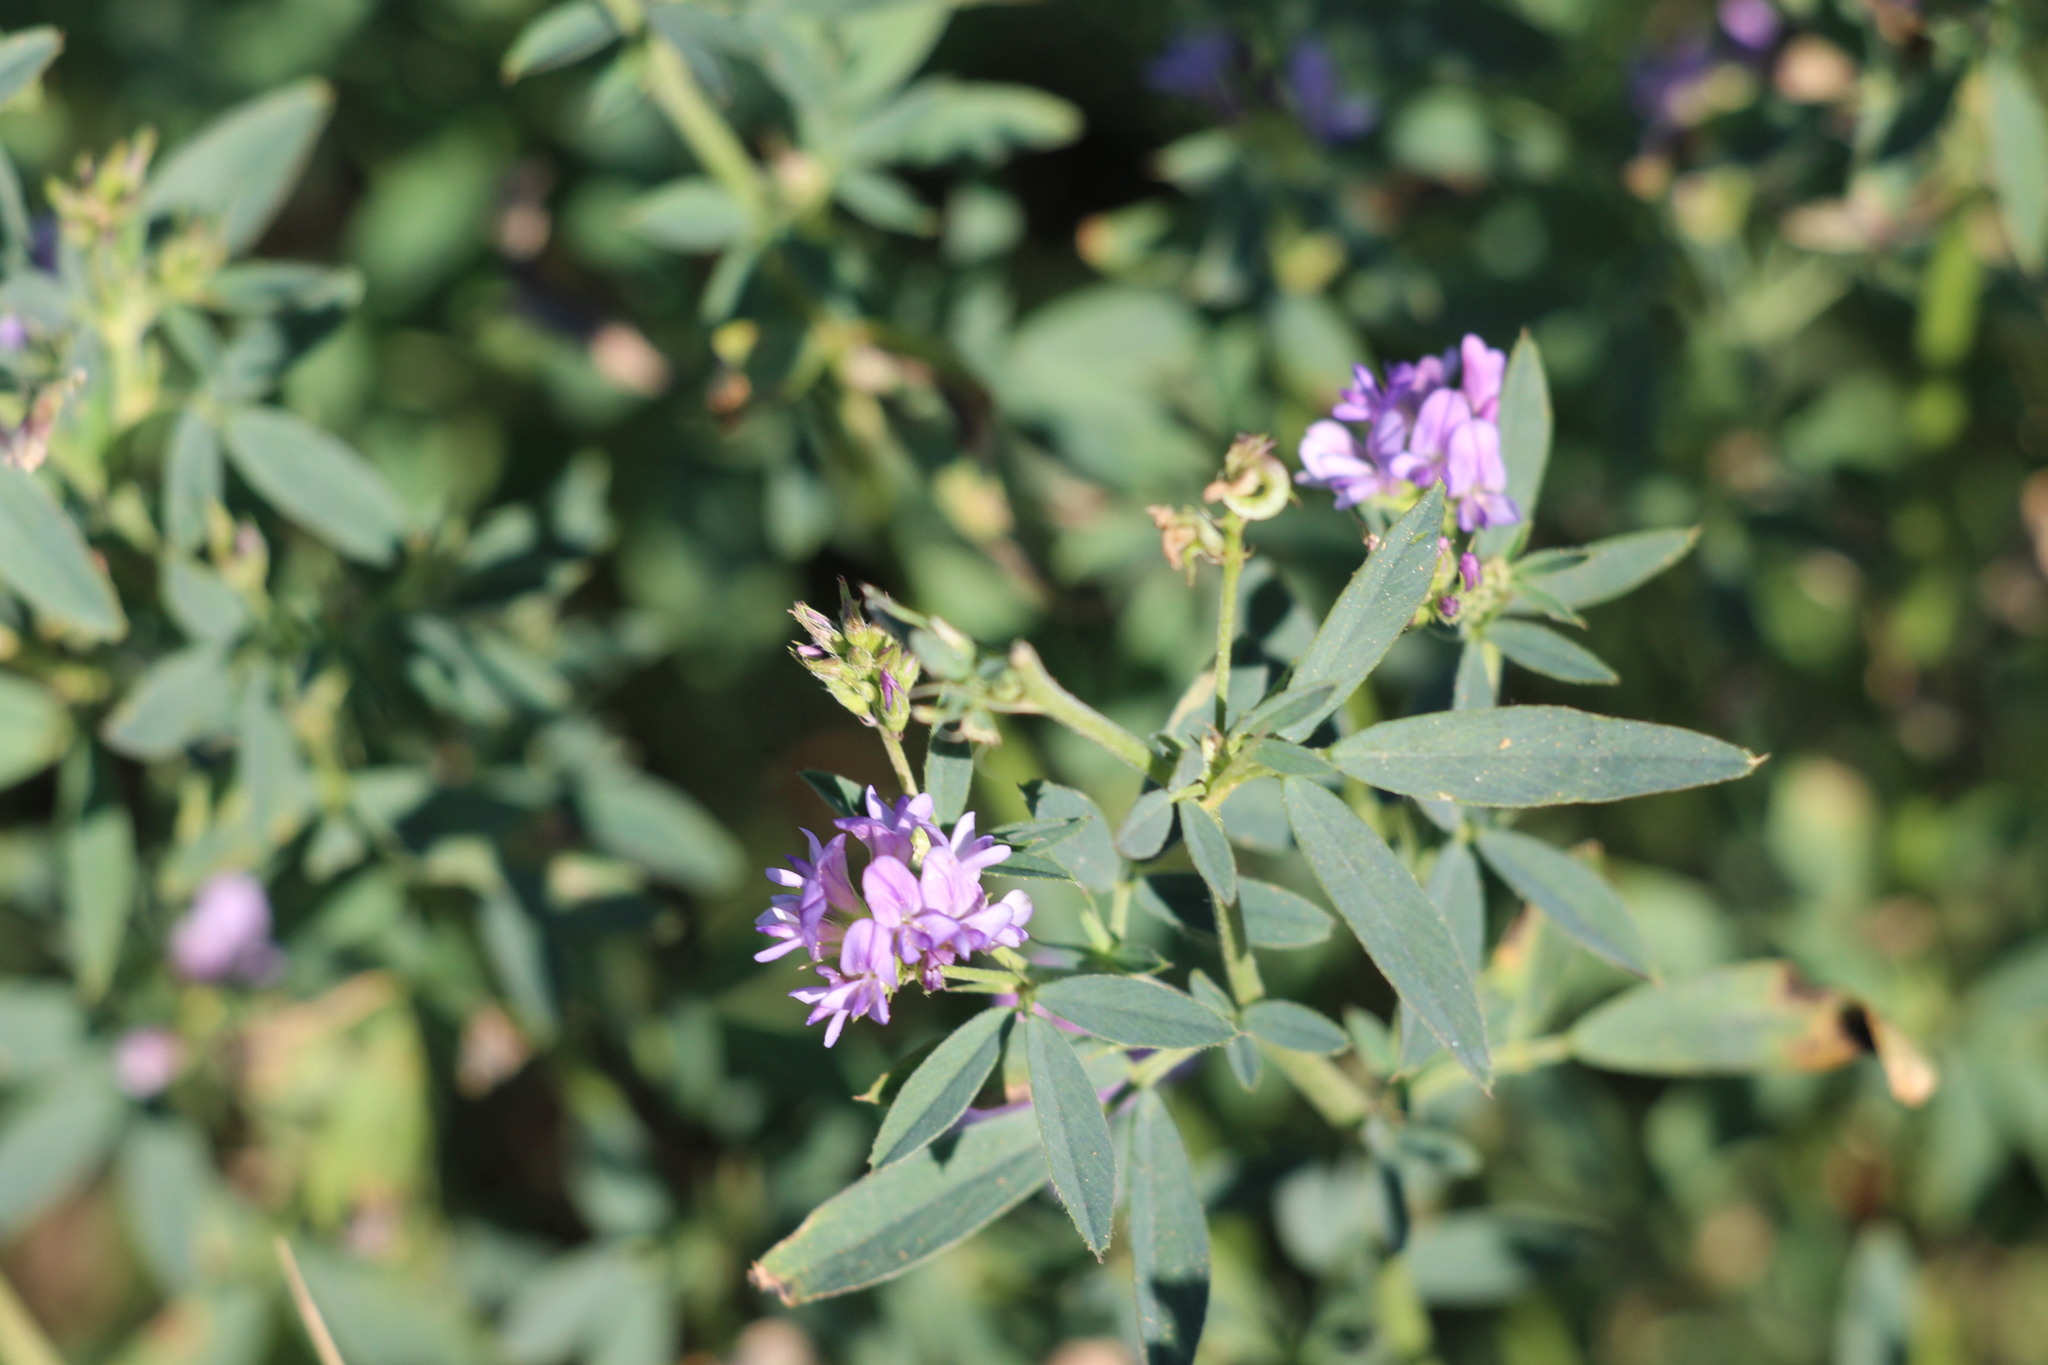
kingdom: Plantae
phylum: Tracheophyta
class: Magnoliopsida
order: Fabales
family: Fabaceae
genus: Medicago
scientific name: Medicago sativa
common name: Alfalfa
